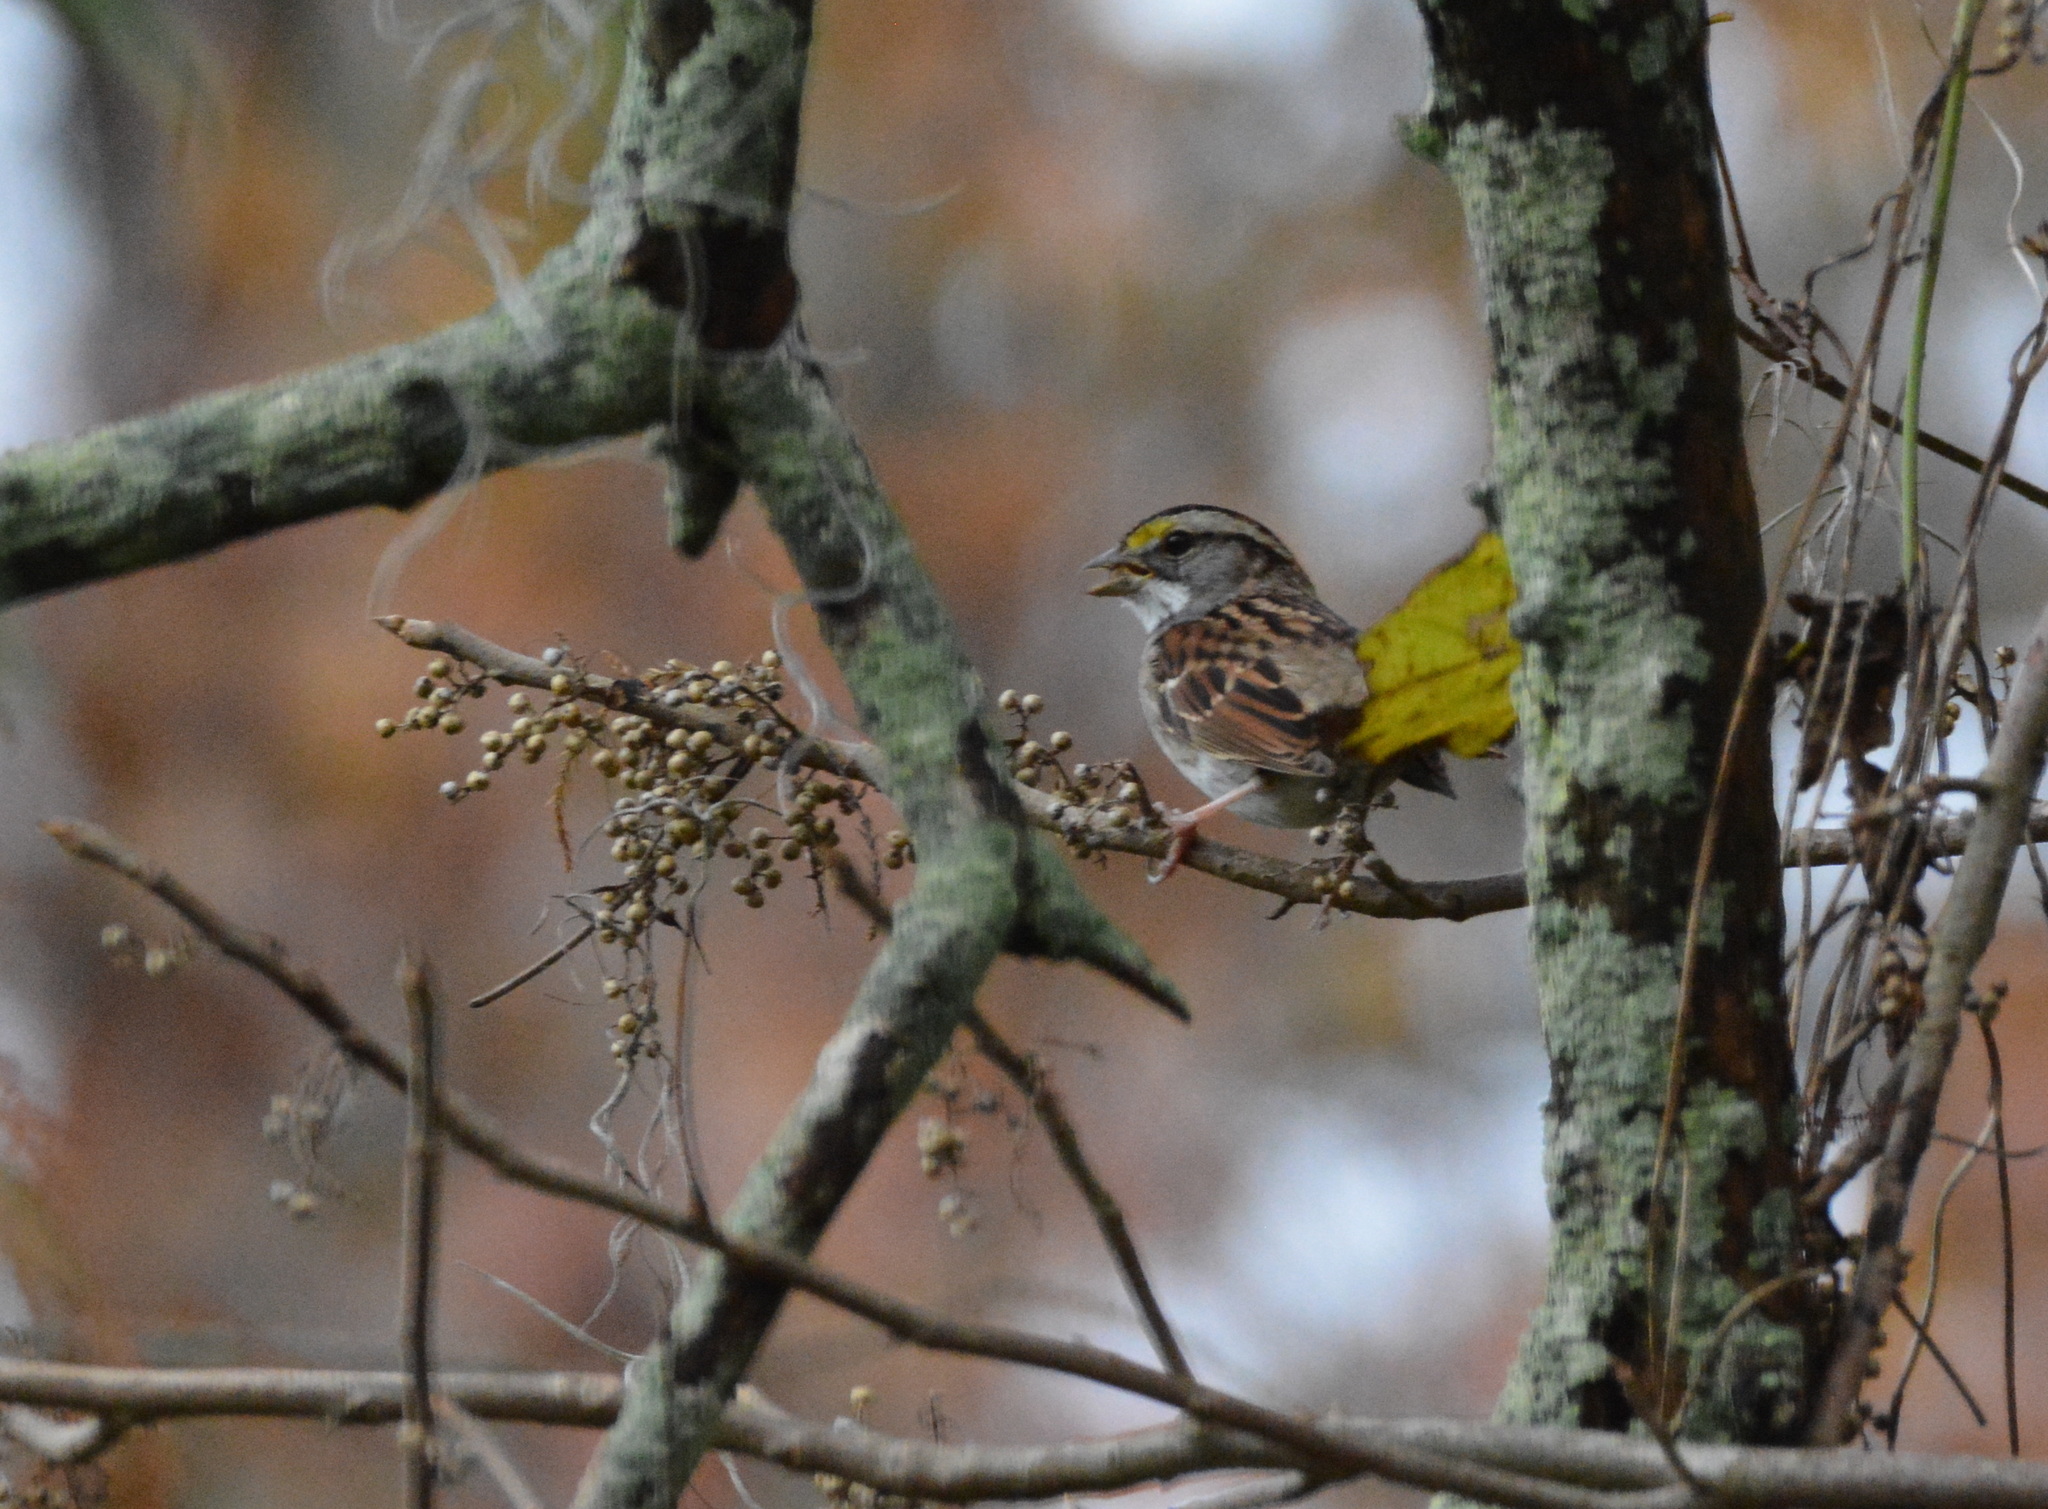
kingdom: Animalia
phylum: Chordata
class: Aves
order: Passeriformes
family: Passerellidae
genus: Zonotrichia
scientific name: Zonotrichia albicollis
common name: White-throated sparrow
